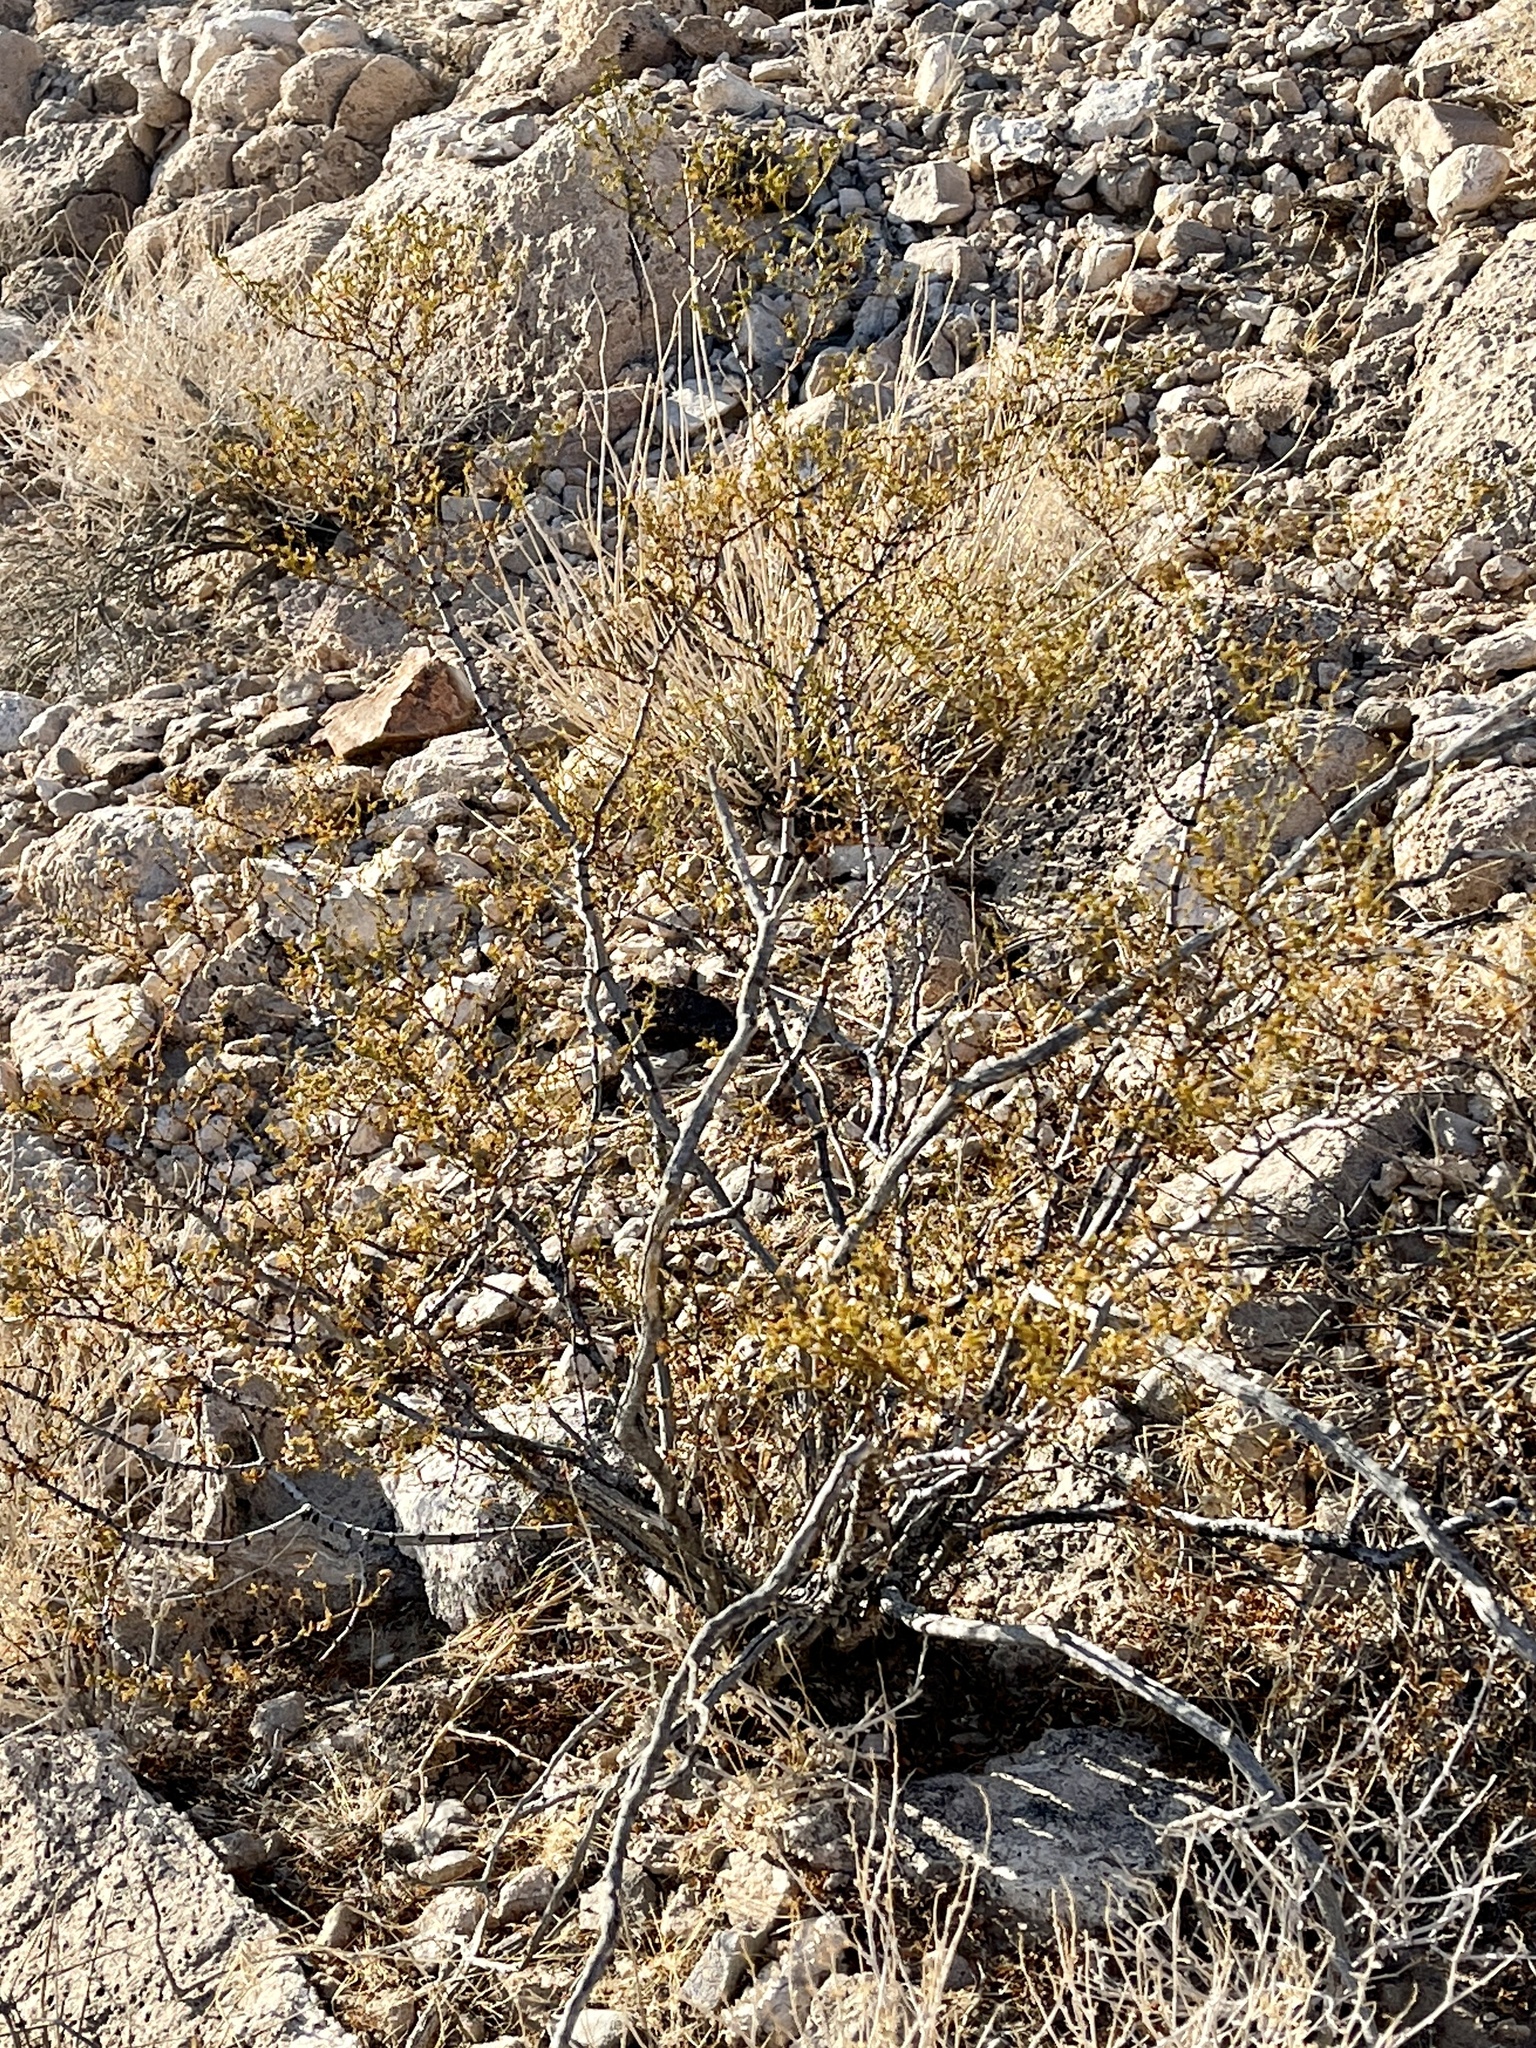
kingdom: Plantae
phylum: Tracheophyta
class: Magnoliopsida
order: Zygophyllales
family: Zygophyllaceae
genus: Larrea
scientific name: Larrea tridentata
